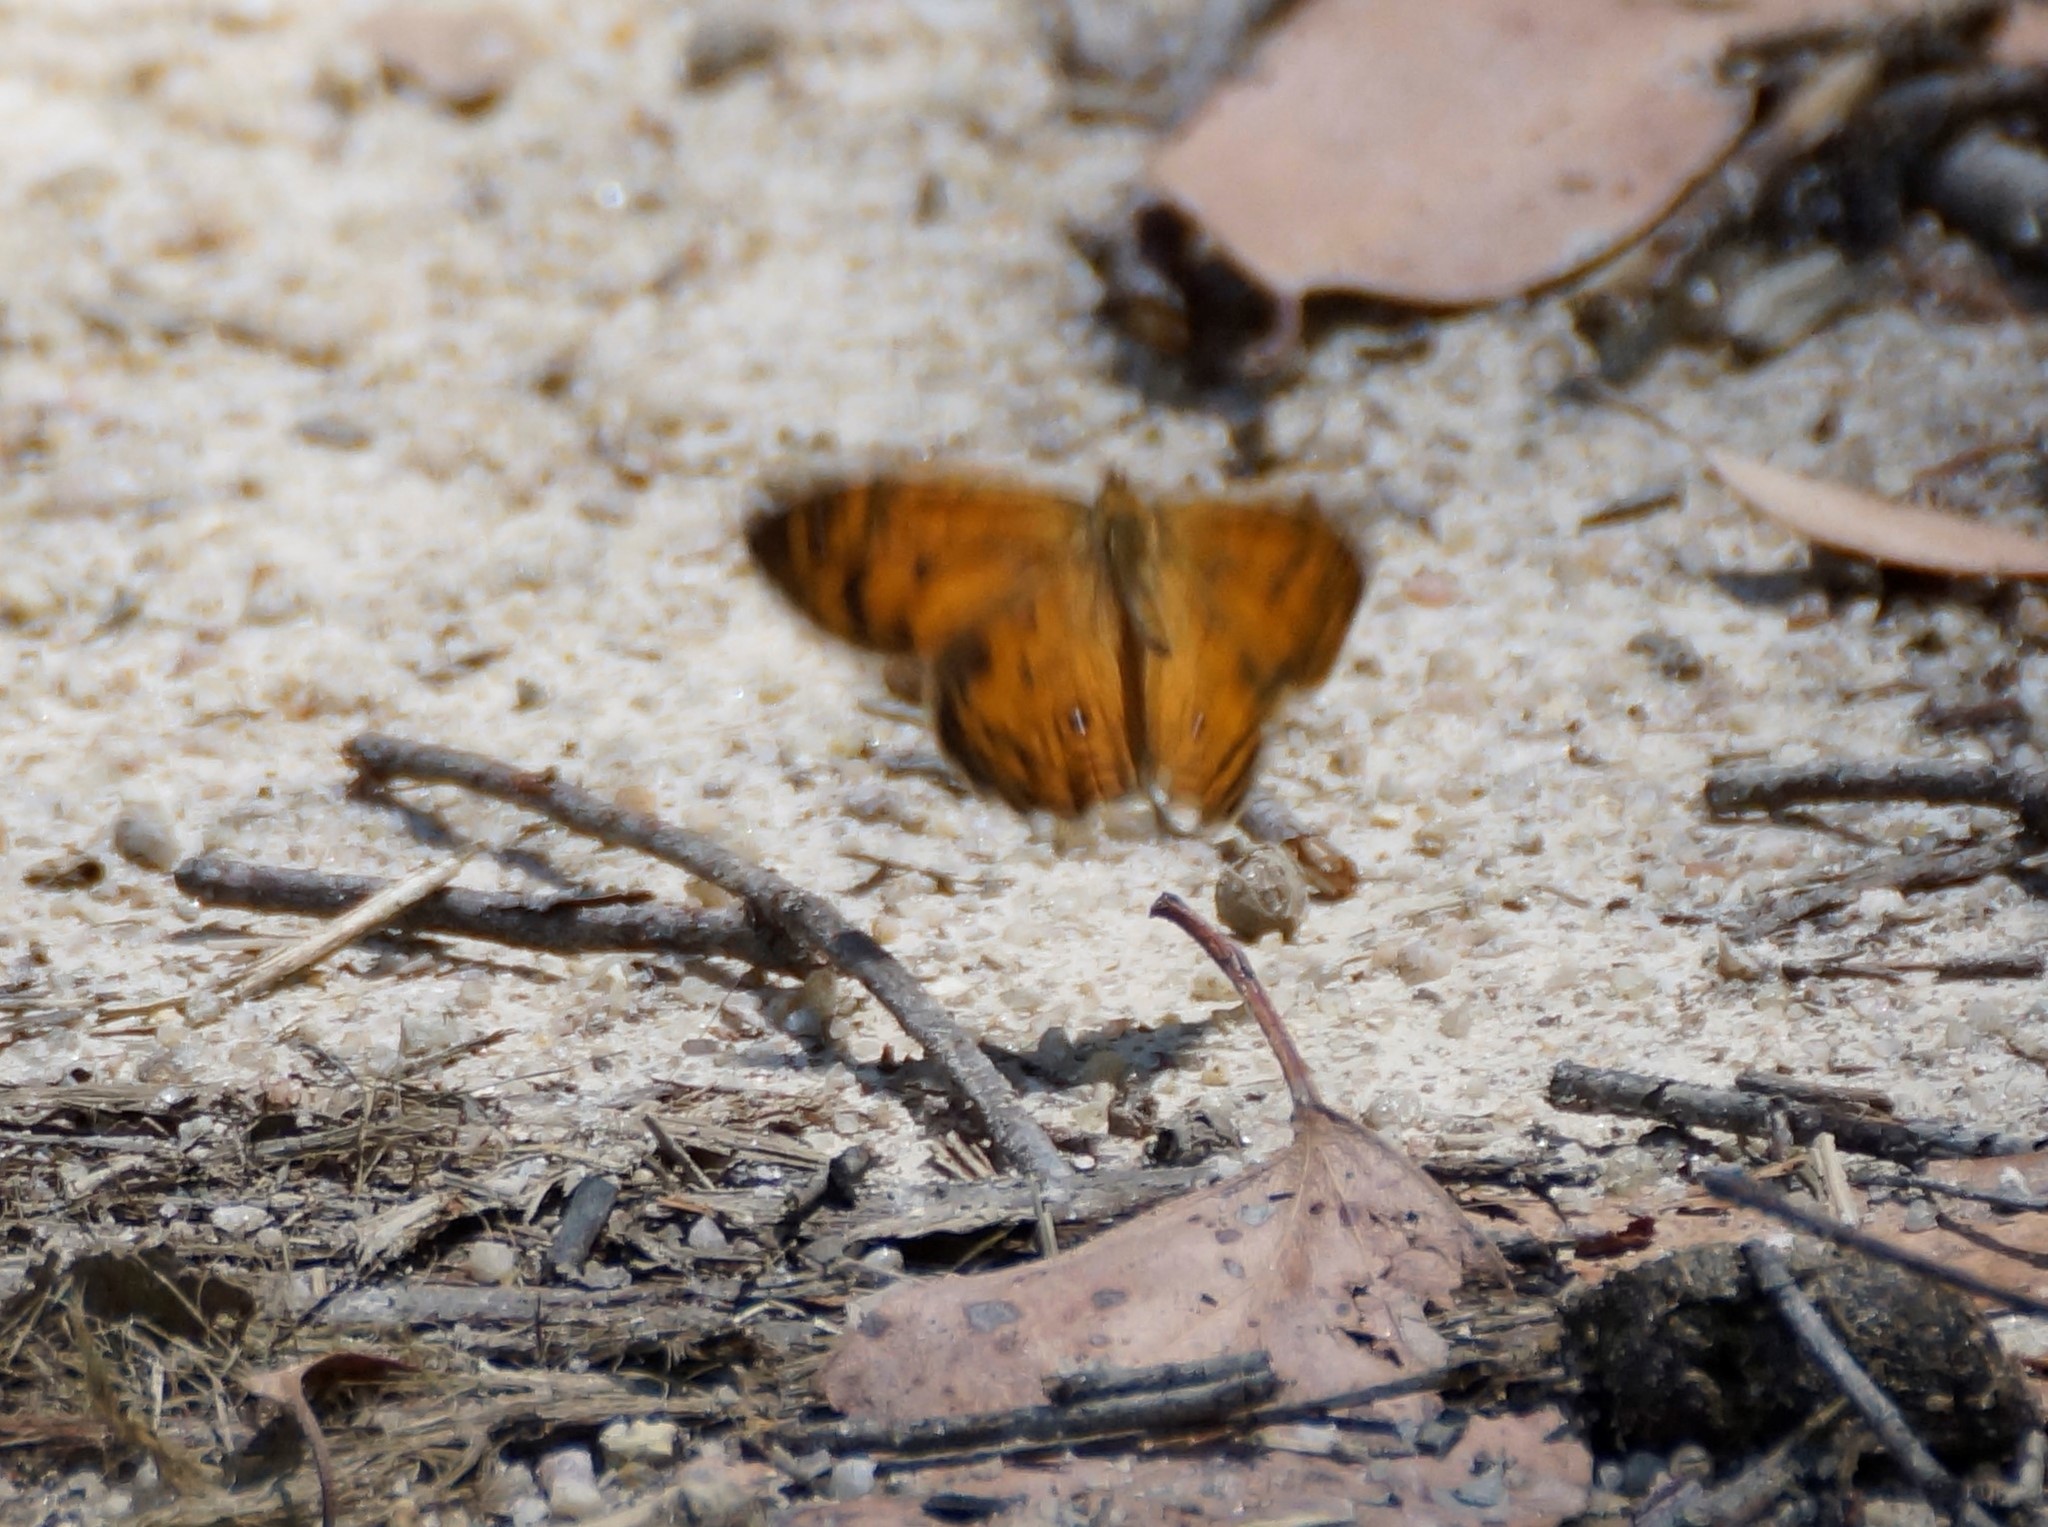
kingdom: Animalia
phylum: Arthropoda
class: Insecta
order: Lepidoptera
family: Nymphalidae
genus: Geitoneura
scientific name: Geitoneura acantha
